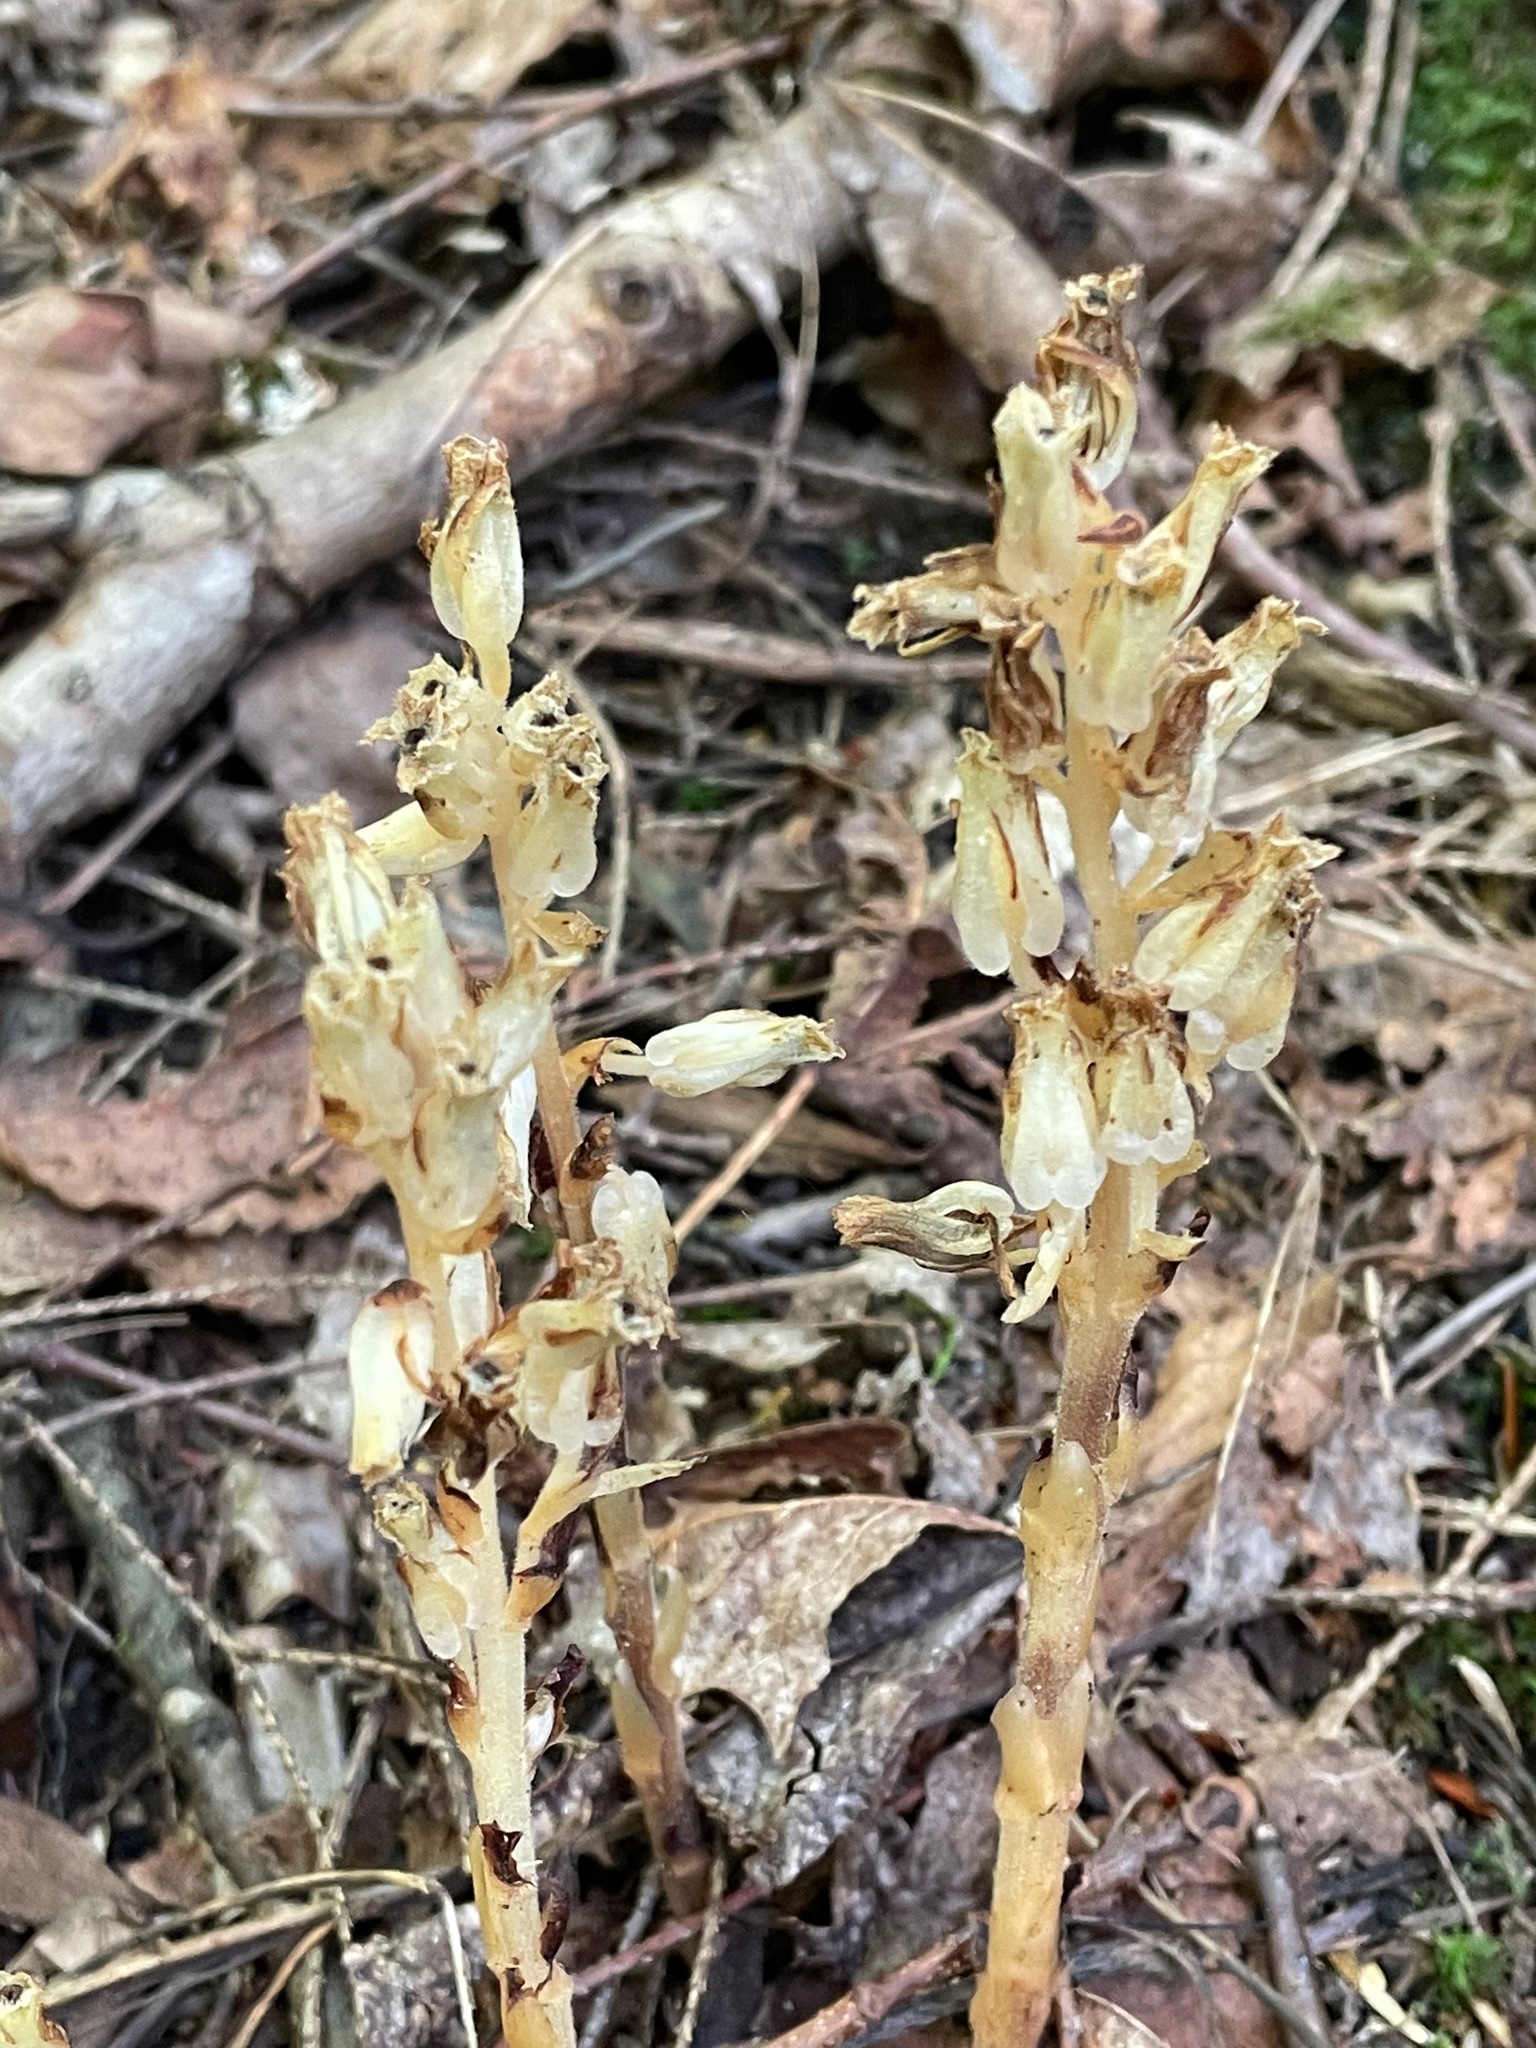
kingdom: Plantae
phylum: Tracheophyta
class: Magnoliopsida
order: Ericales
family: Ericaceae
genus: Hypopitys
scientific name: Hypopitys monotropa
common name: Yellow bird's-nest
